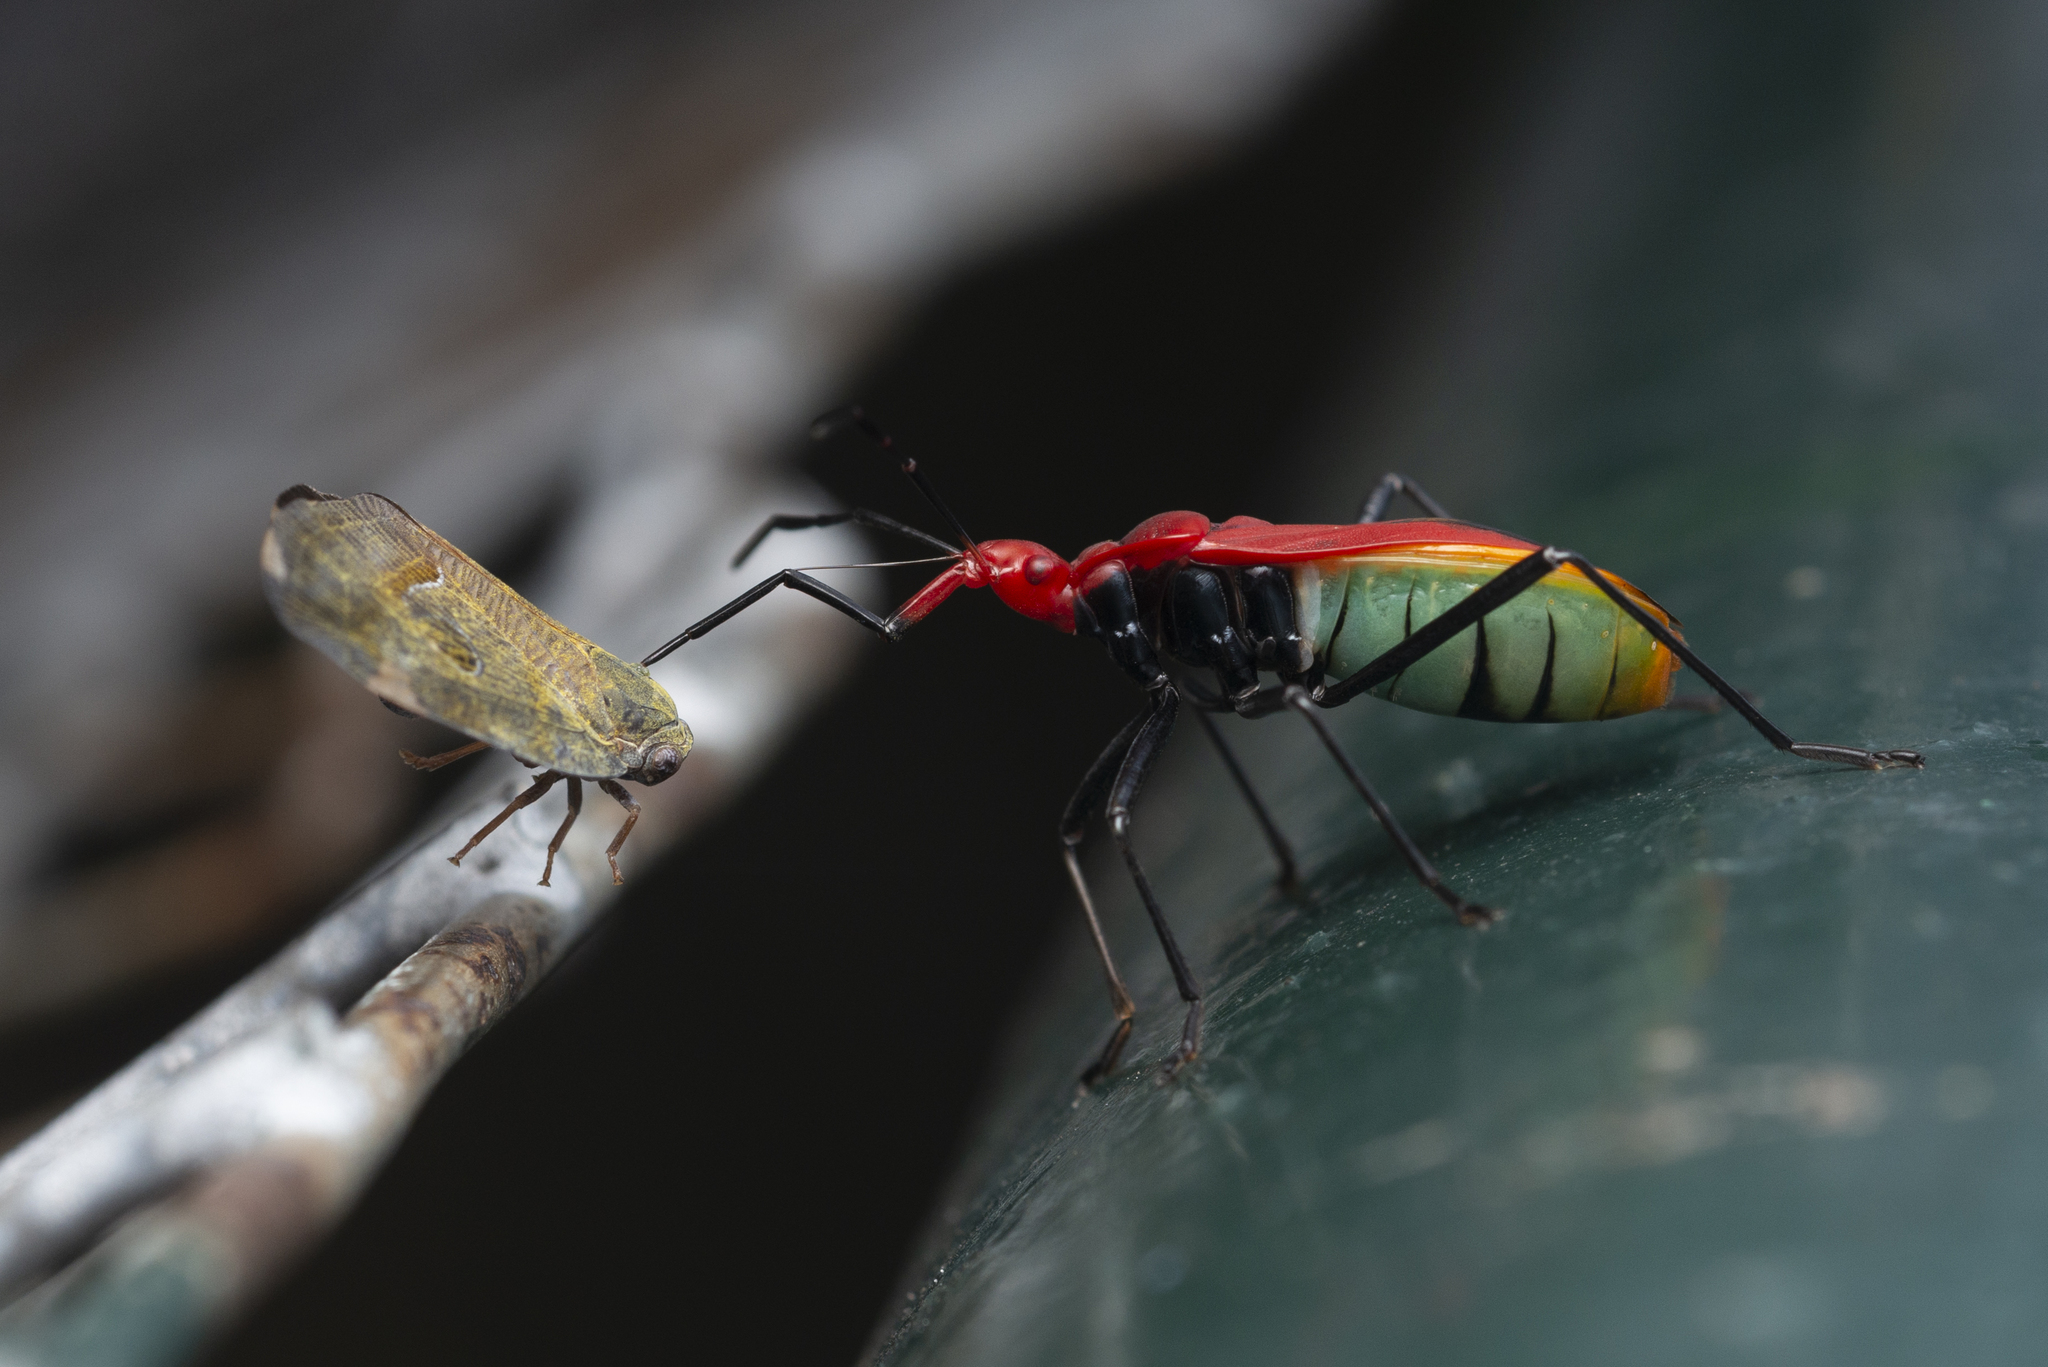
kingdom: Animalia
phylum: Arthropoda
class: Insecta
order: Hemiptera
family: Pyrrhocoridae
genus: Dindymus
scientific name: Dindymus
